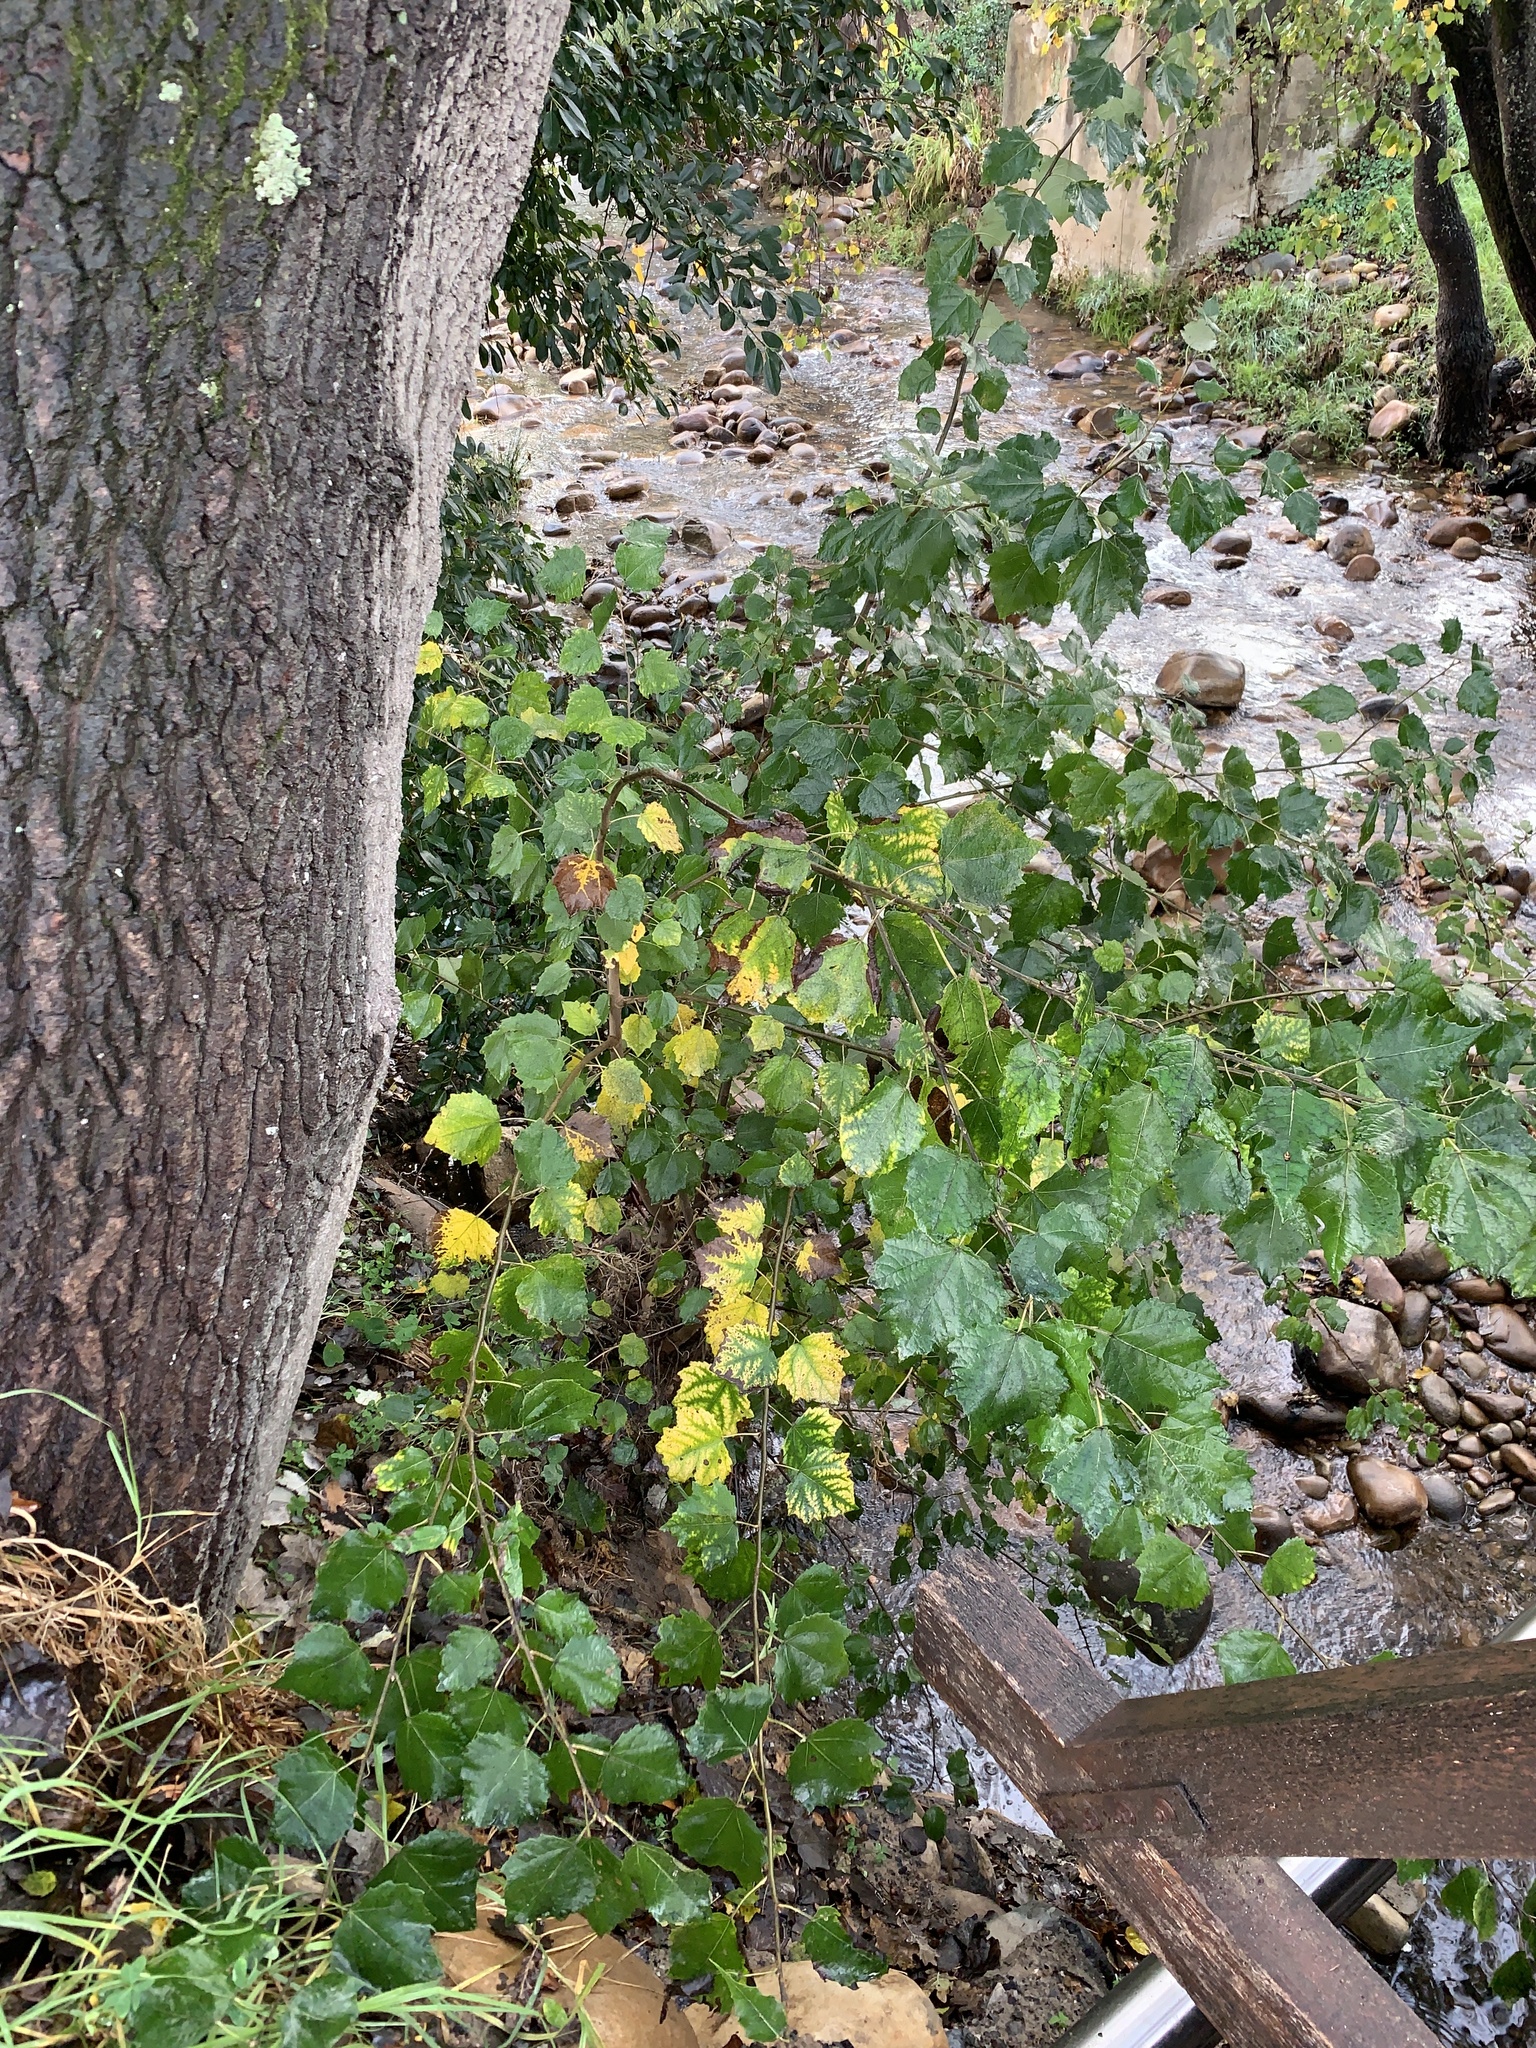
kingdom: Plantae
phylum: Tracheophyta
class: Magnoliopsida
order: Malpighiales
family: Salicaceae
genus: Populus
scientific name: Populus canescens
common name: Gray poplar
